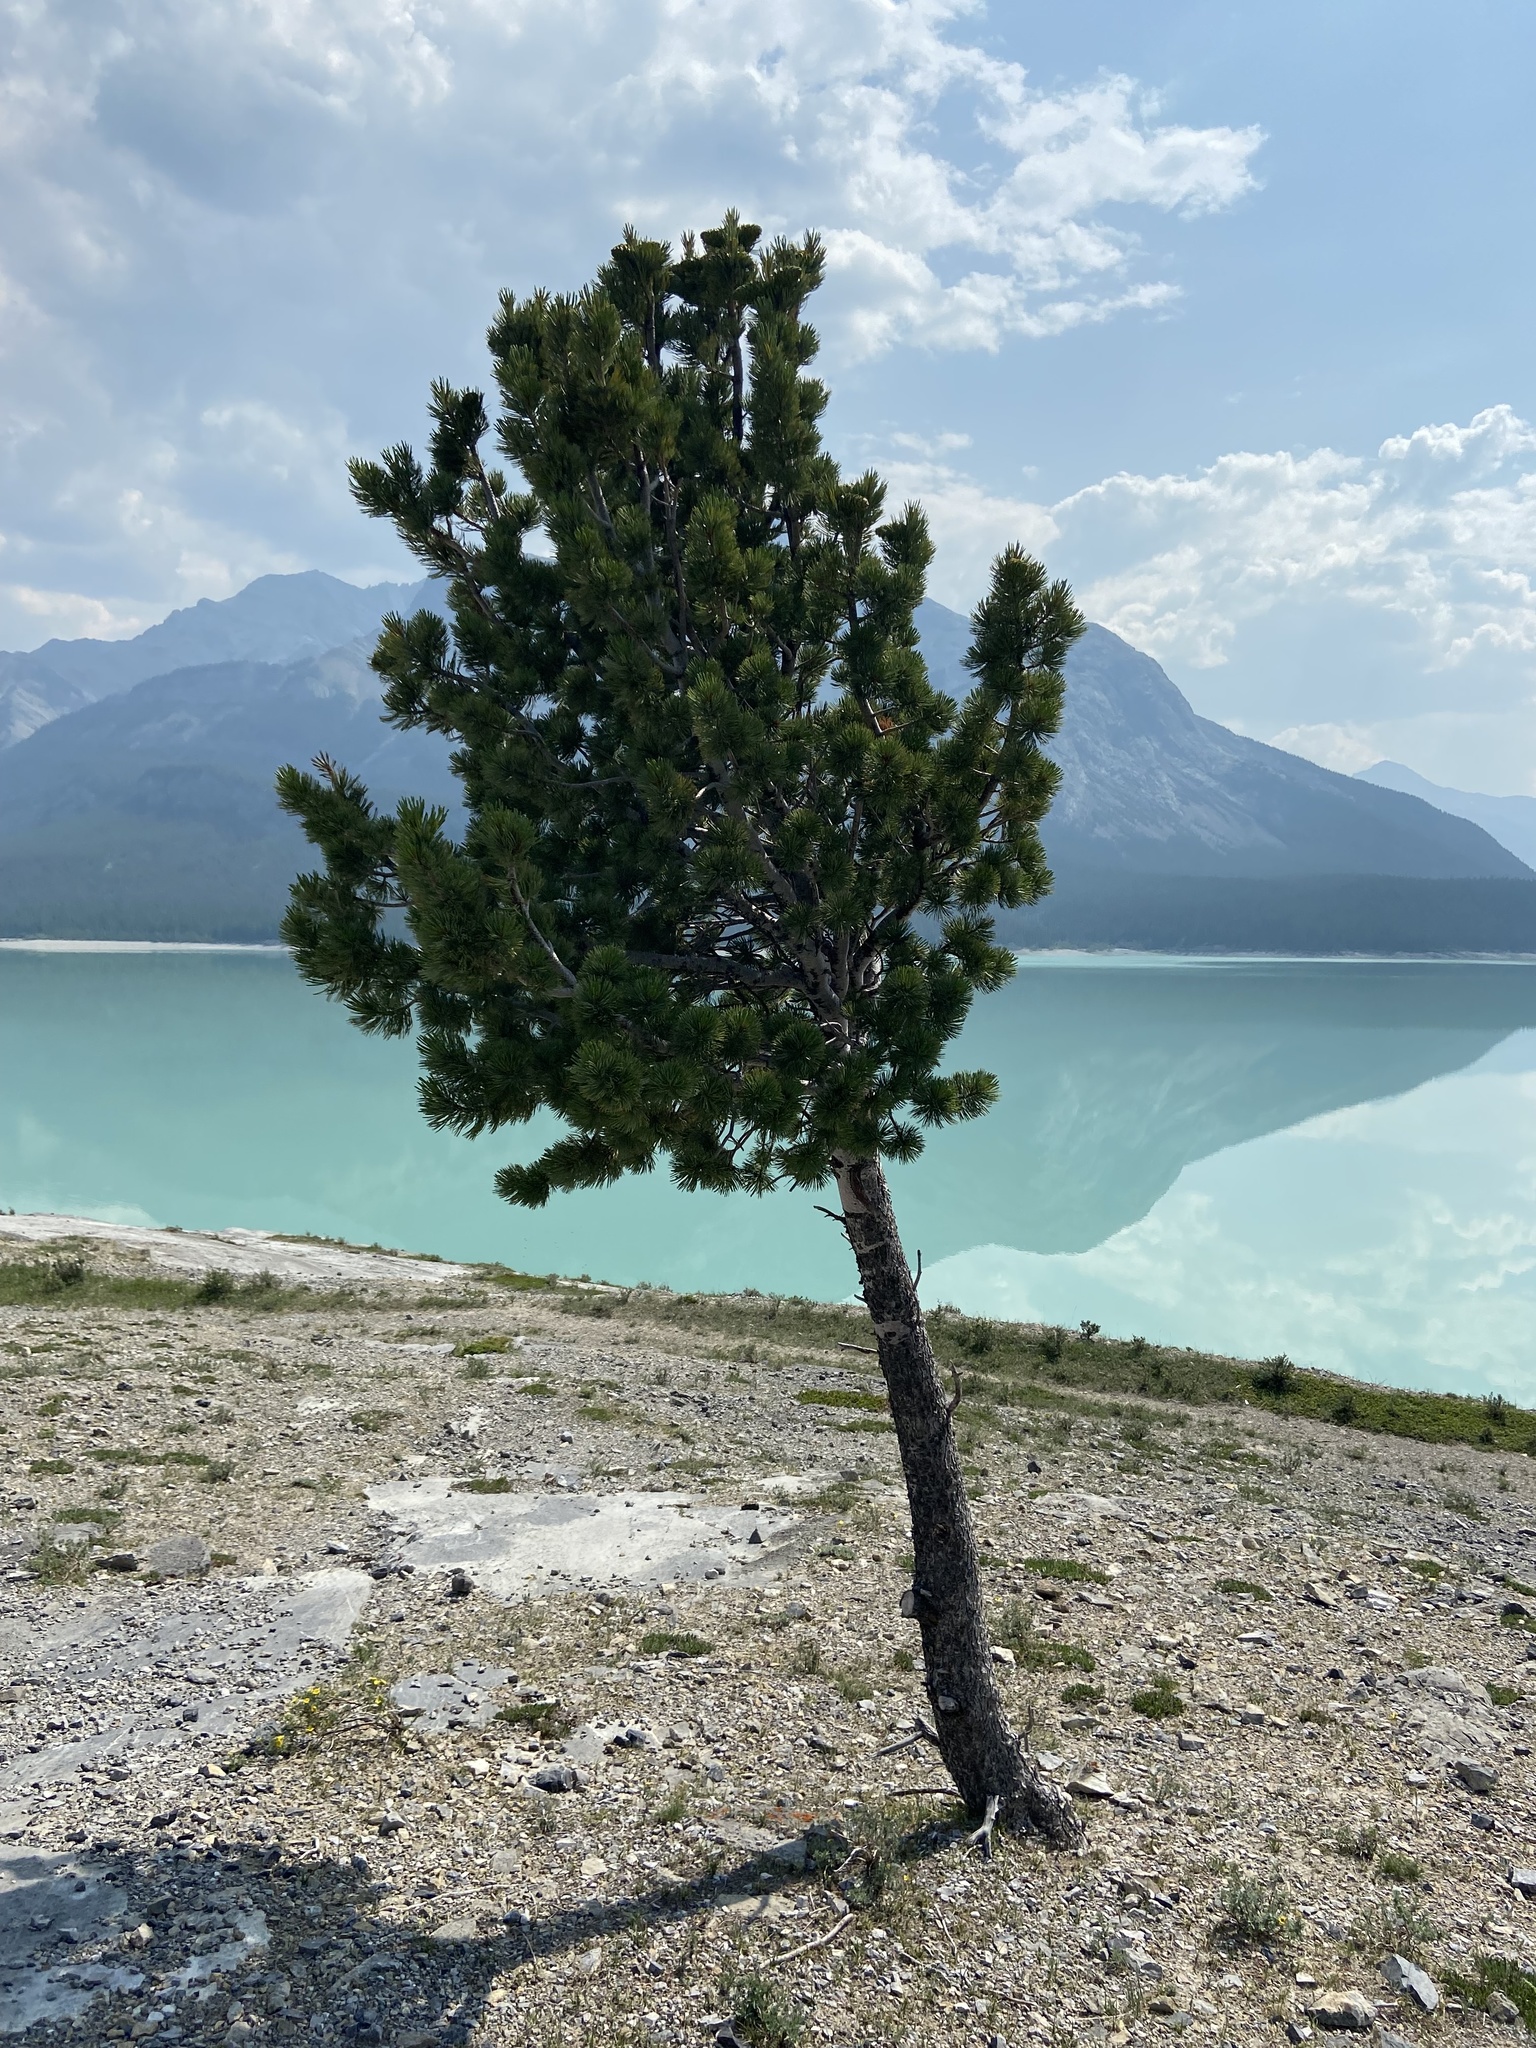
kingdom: Plantae
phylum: Tracheophyta
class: Pinopsida
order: Pinales
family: Pinaceae
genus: Pinus
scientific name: Pinus flexilis
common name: Limber pine
